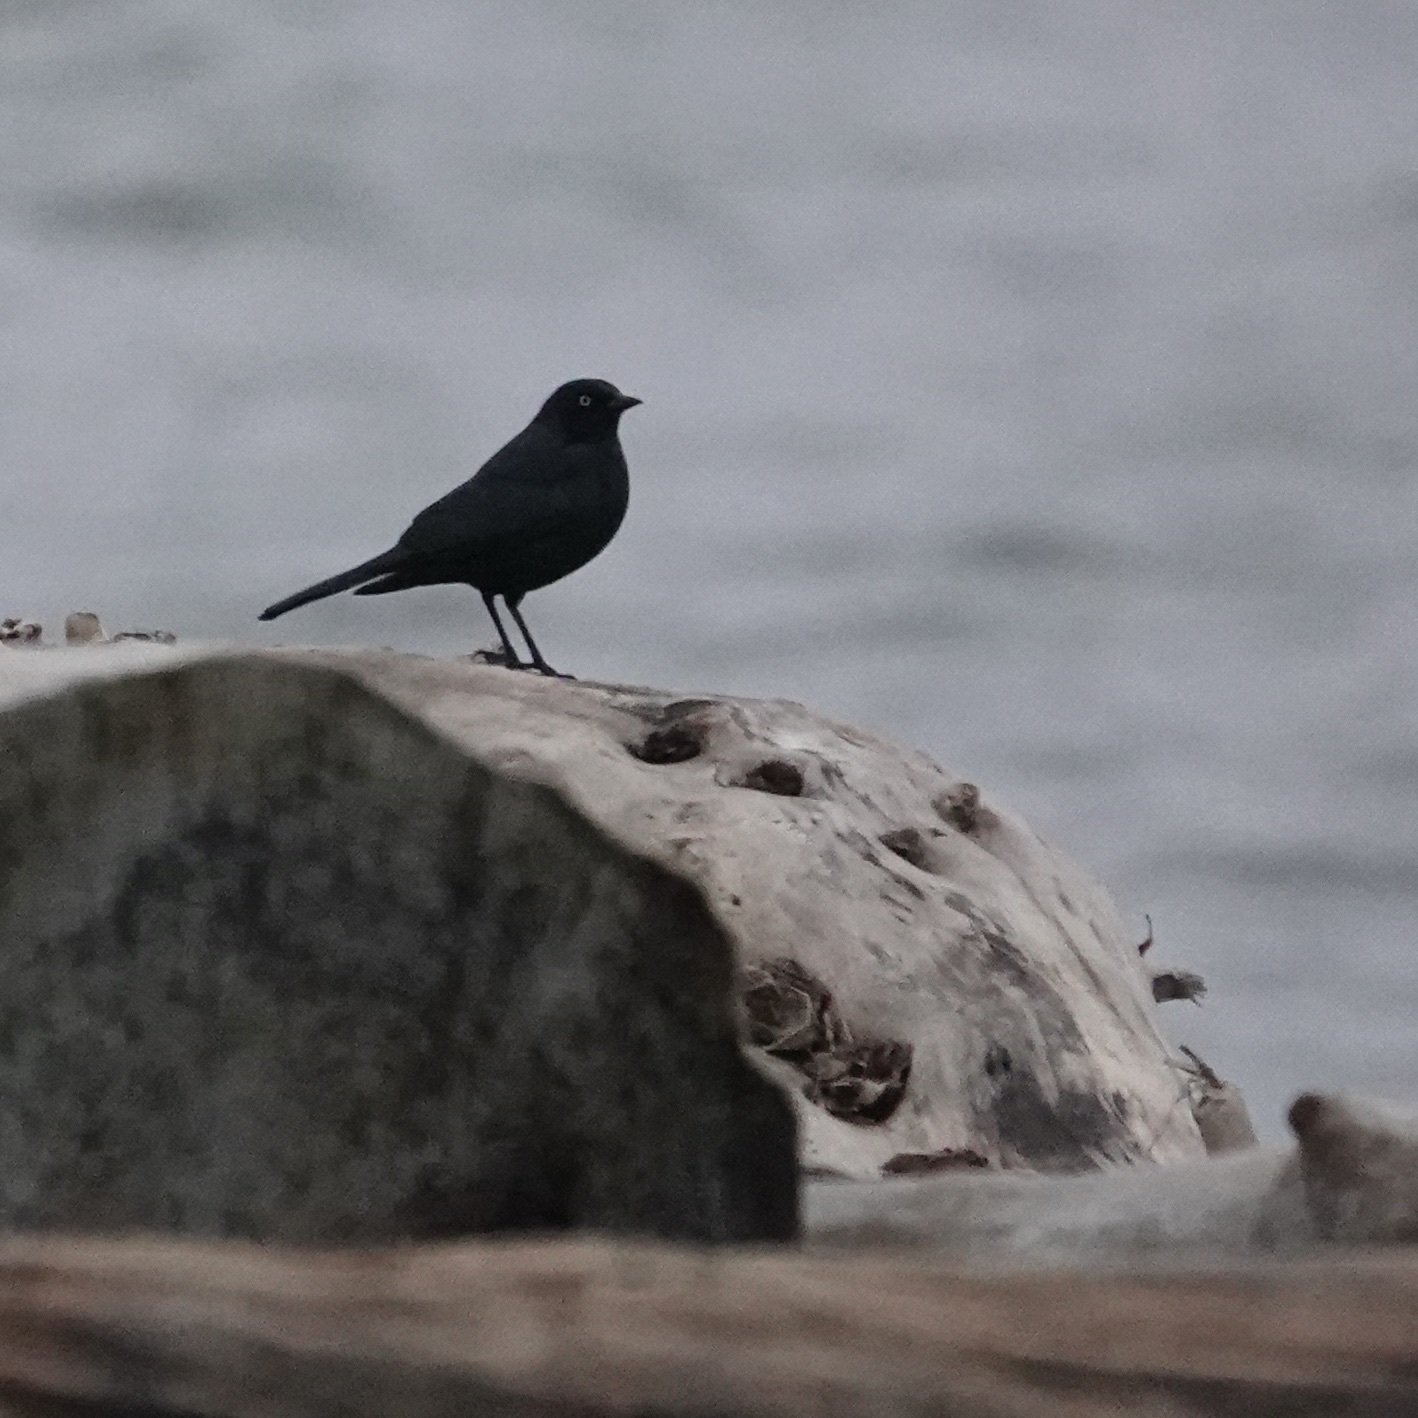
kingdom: Animalia
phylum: Chordata
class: Aves
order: Passeriformes
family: Icteridae
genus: Euphagus
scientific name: Euphagus cyanocephalus
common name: Brewer's blackbird
